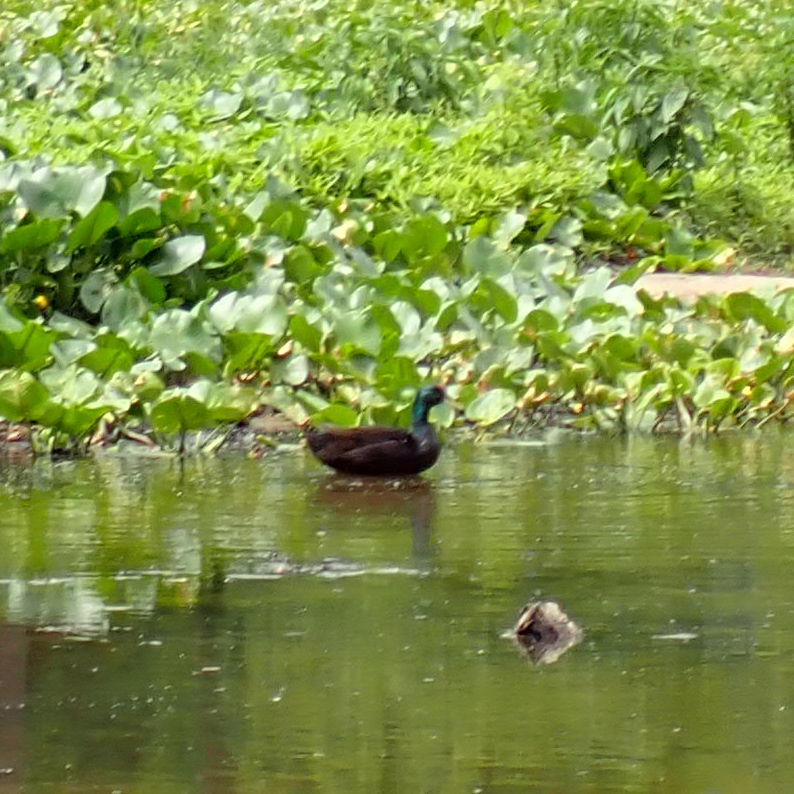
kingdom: Animalia
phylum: Chordata
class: Aves
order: Anseriformes
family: Anatidae
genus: Anas
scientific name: Anas platyrhynchos
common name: Mallard
